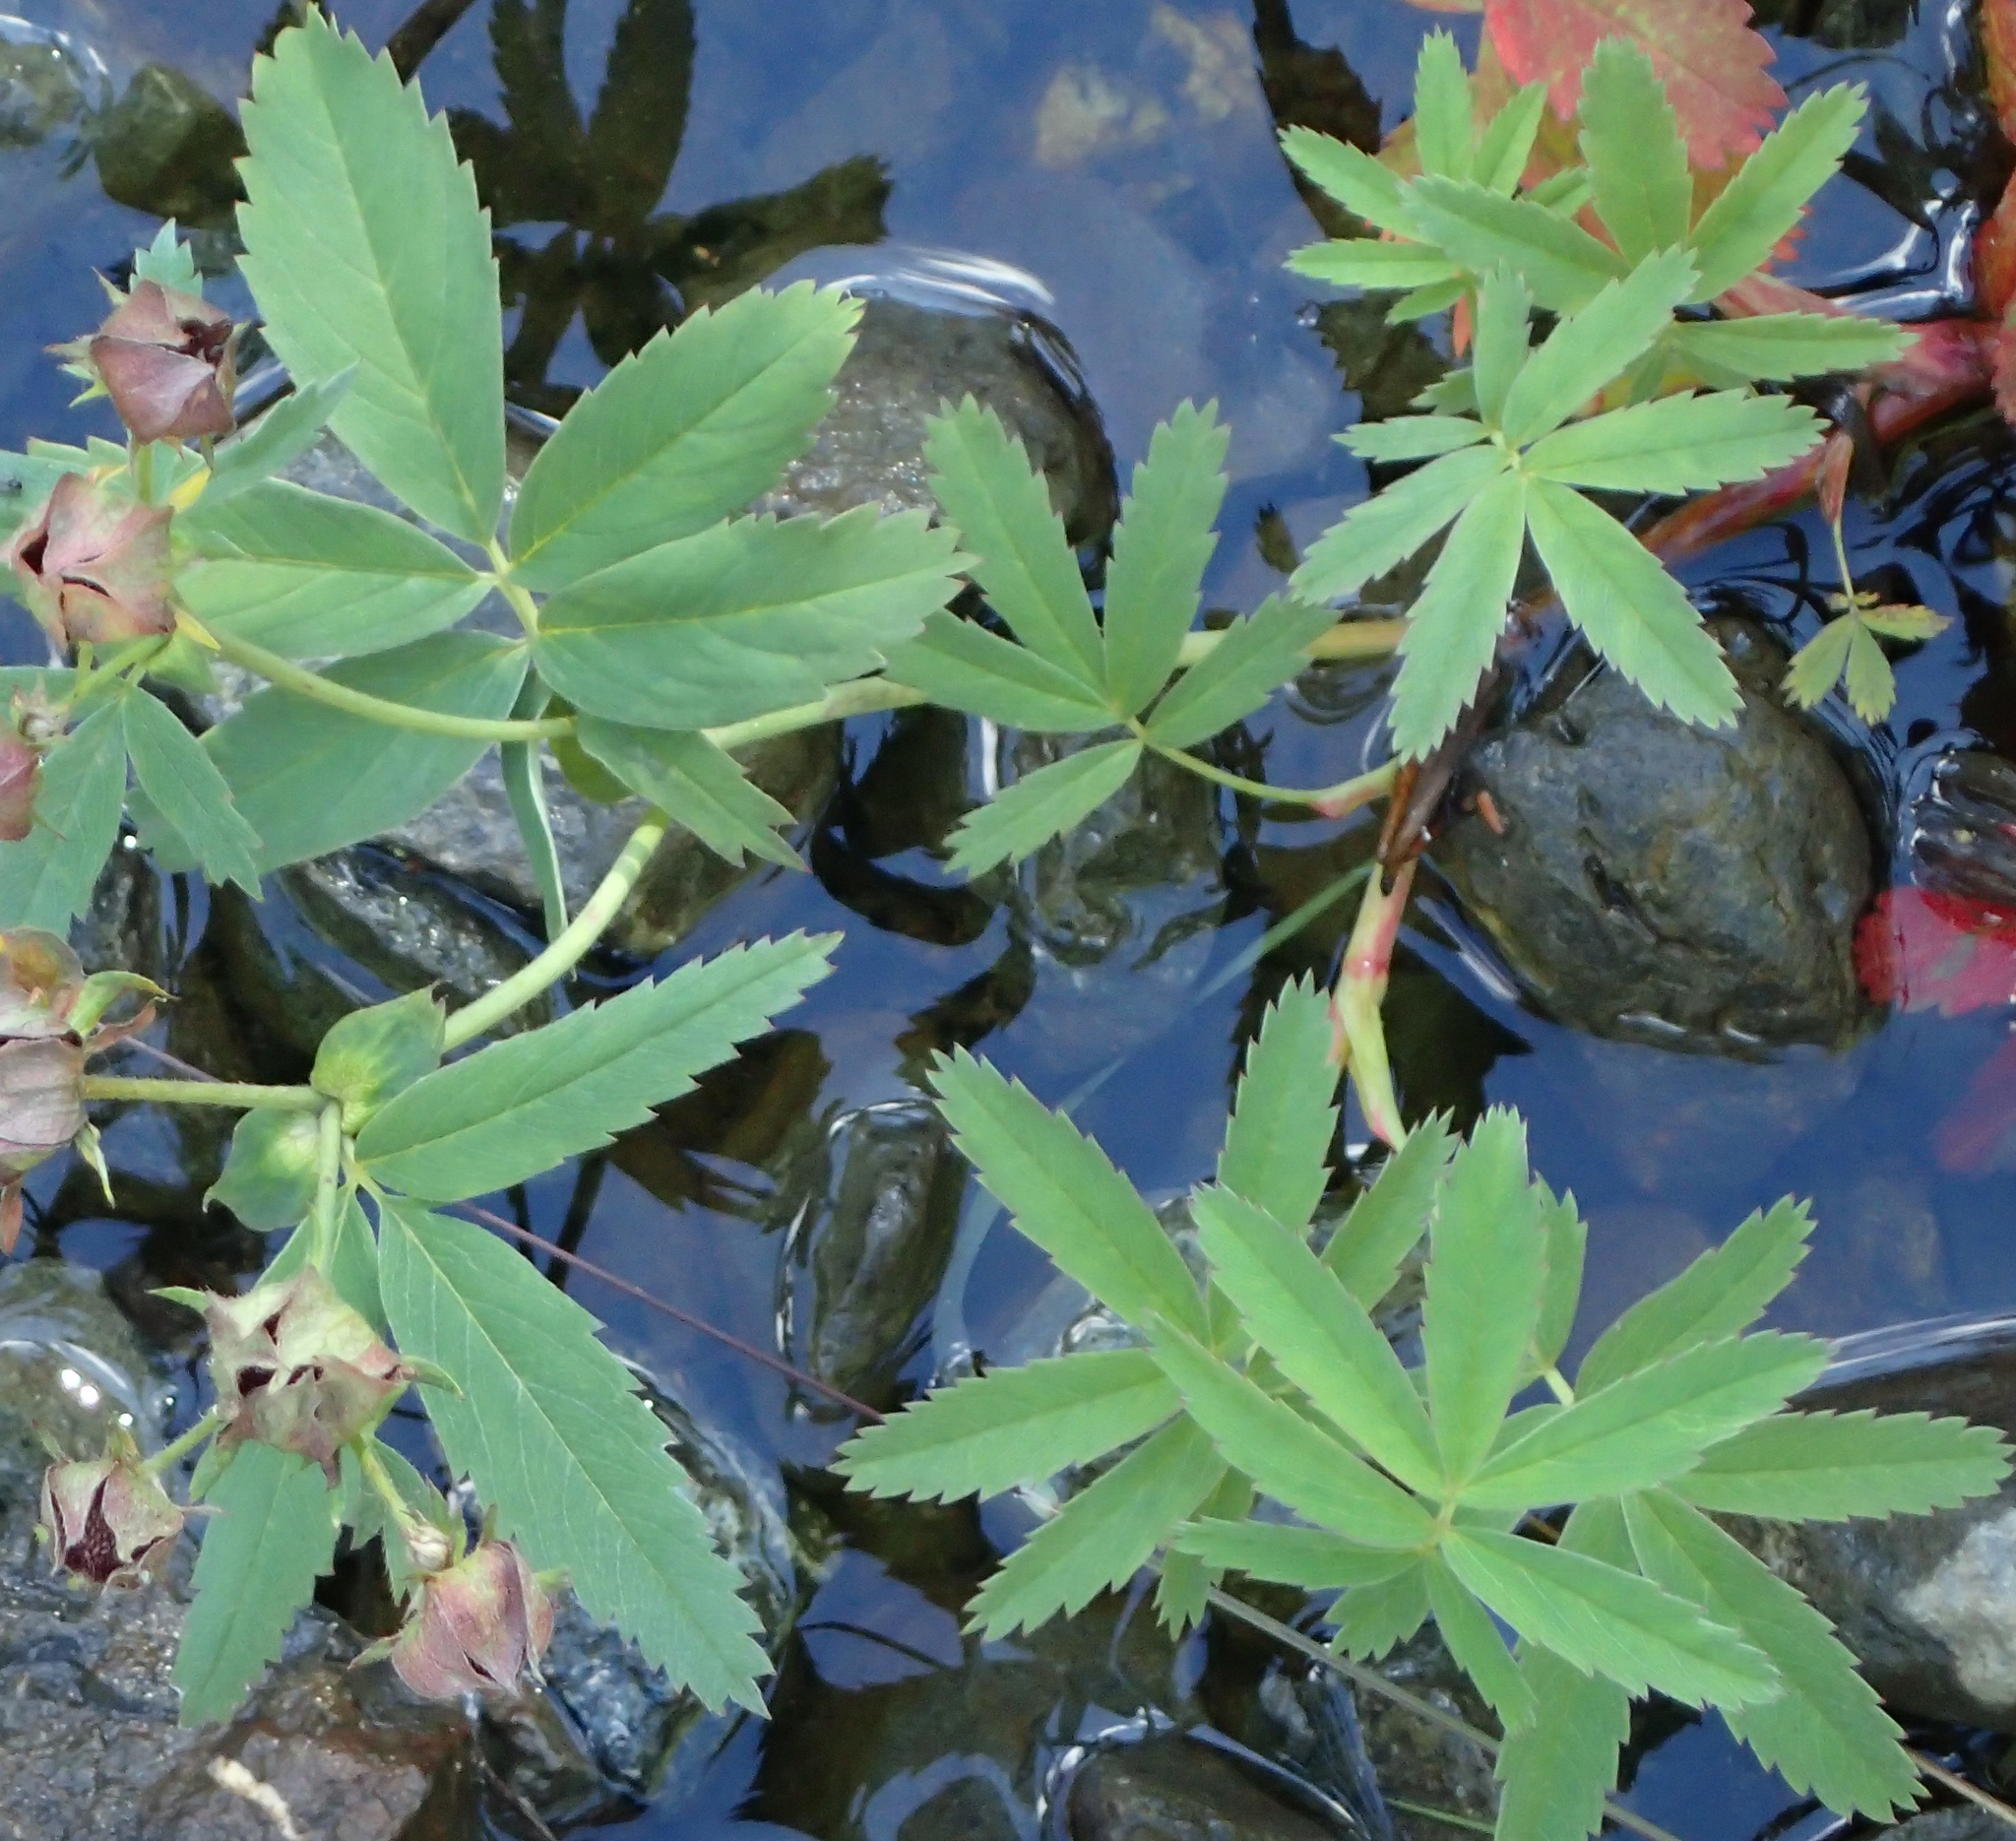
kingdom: Plantae
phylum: Tracheophyta
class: Magnoliopsida
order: Rosales
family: Rosaceae
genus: Comarum
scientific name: Comarum palustre
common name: Marsh cinquefoil
